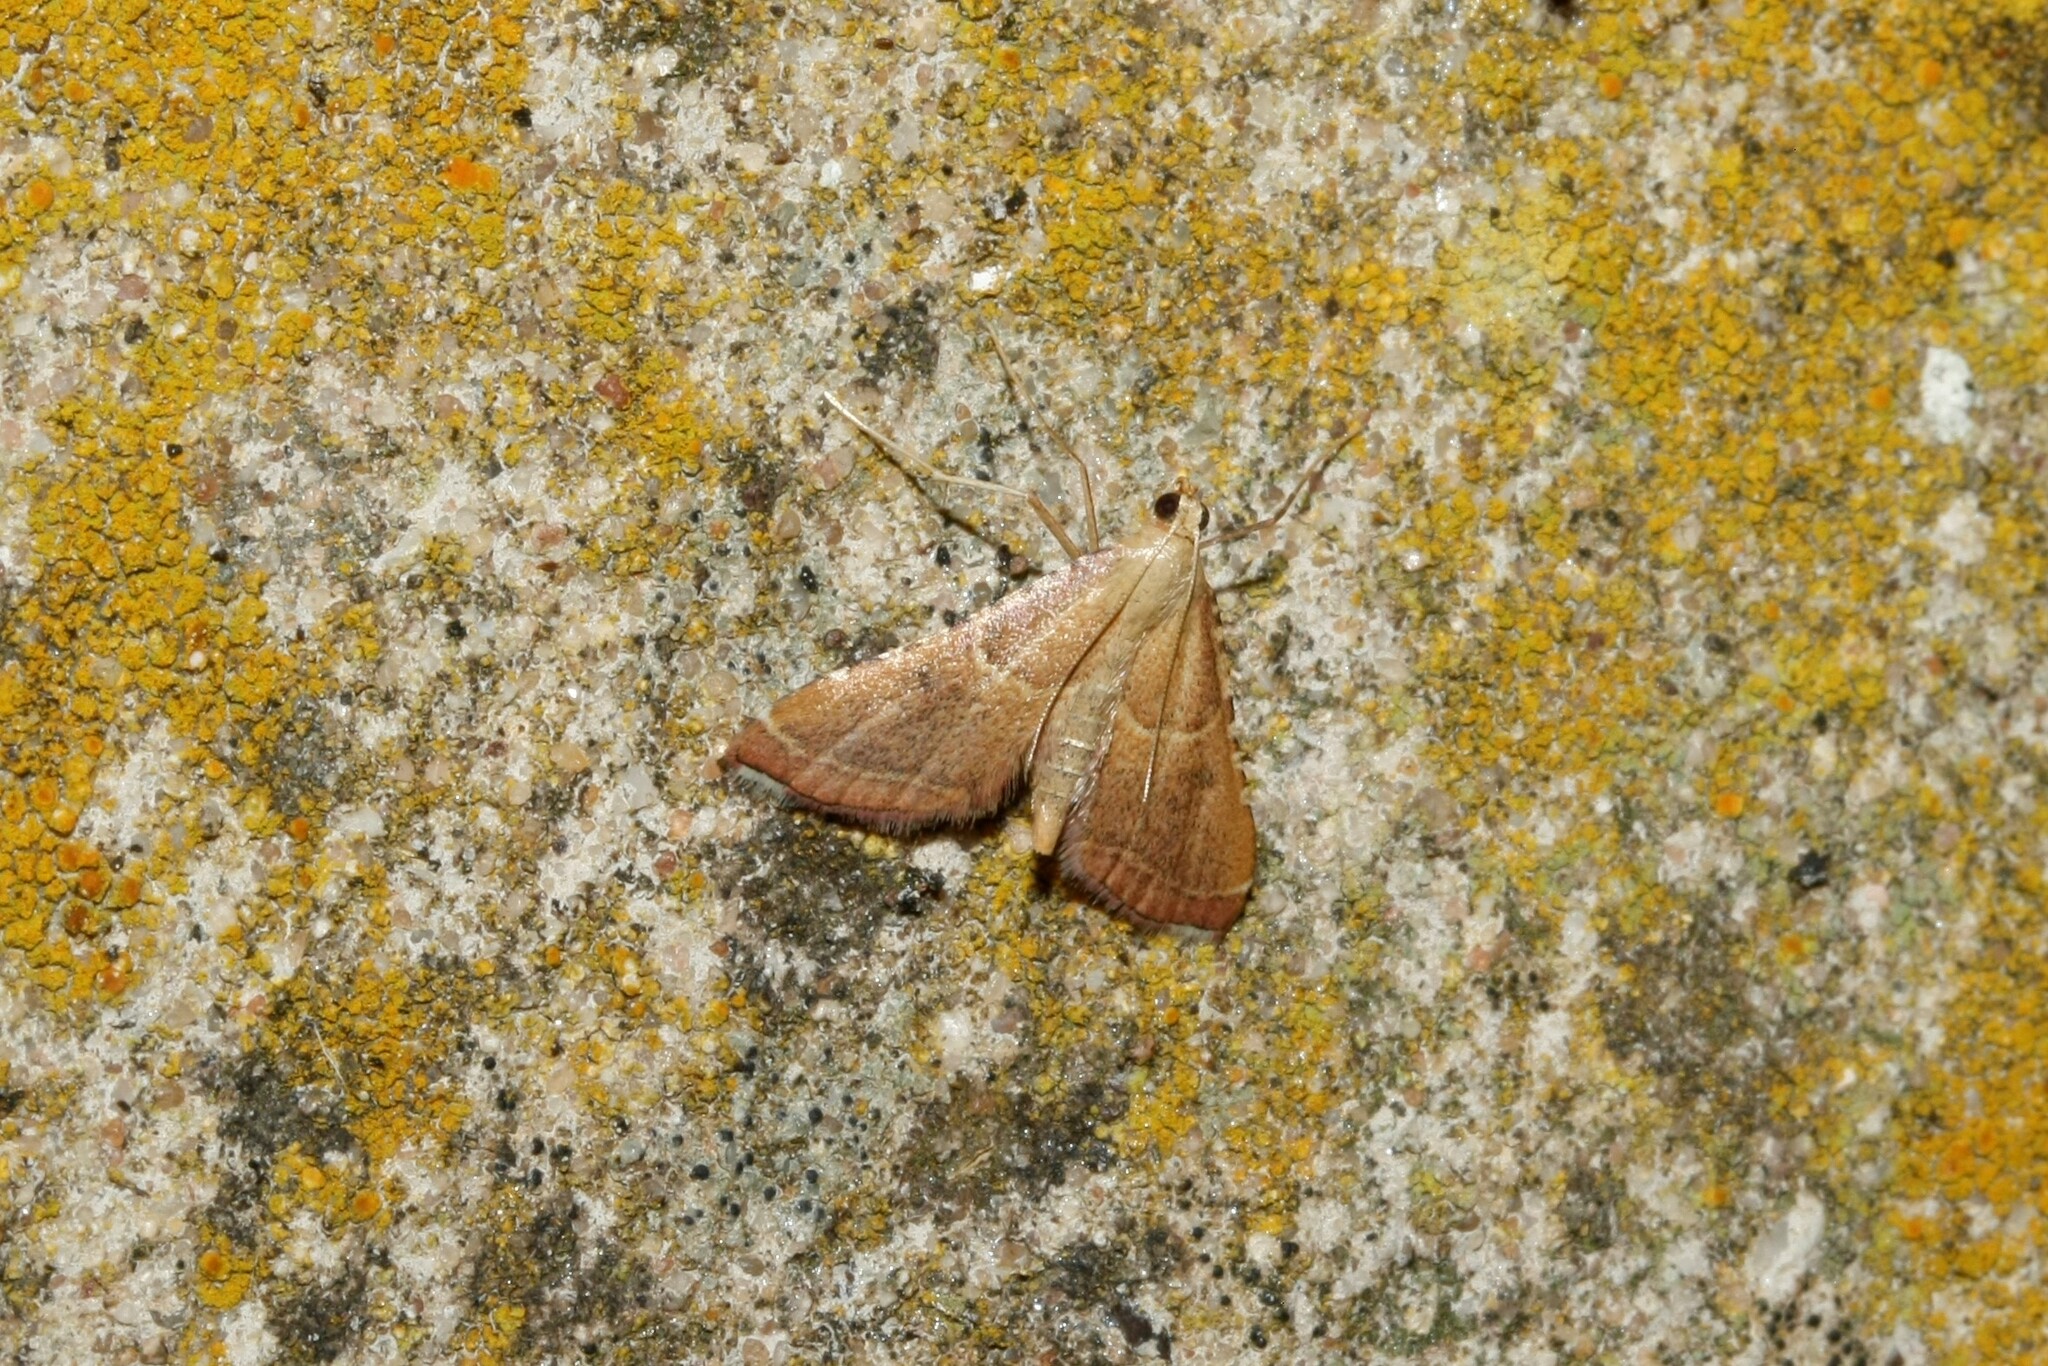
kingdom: Animalia
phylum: Arthropoda
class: Insecta
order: Lepidoptera
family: Pyralidae
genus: Endotricha
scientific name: Endotricha flammealis
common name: Rosy tabby
